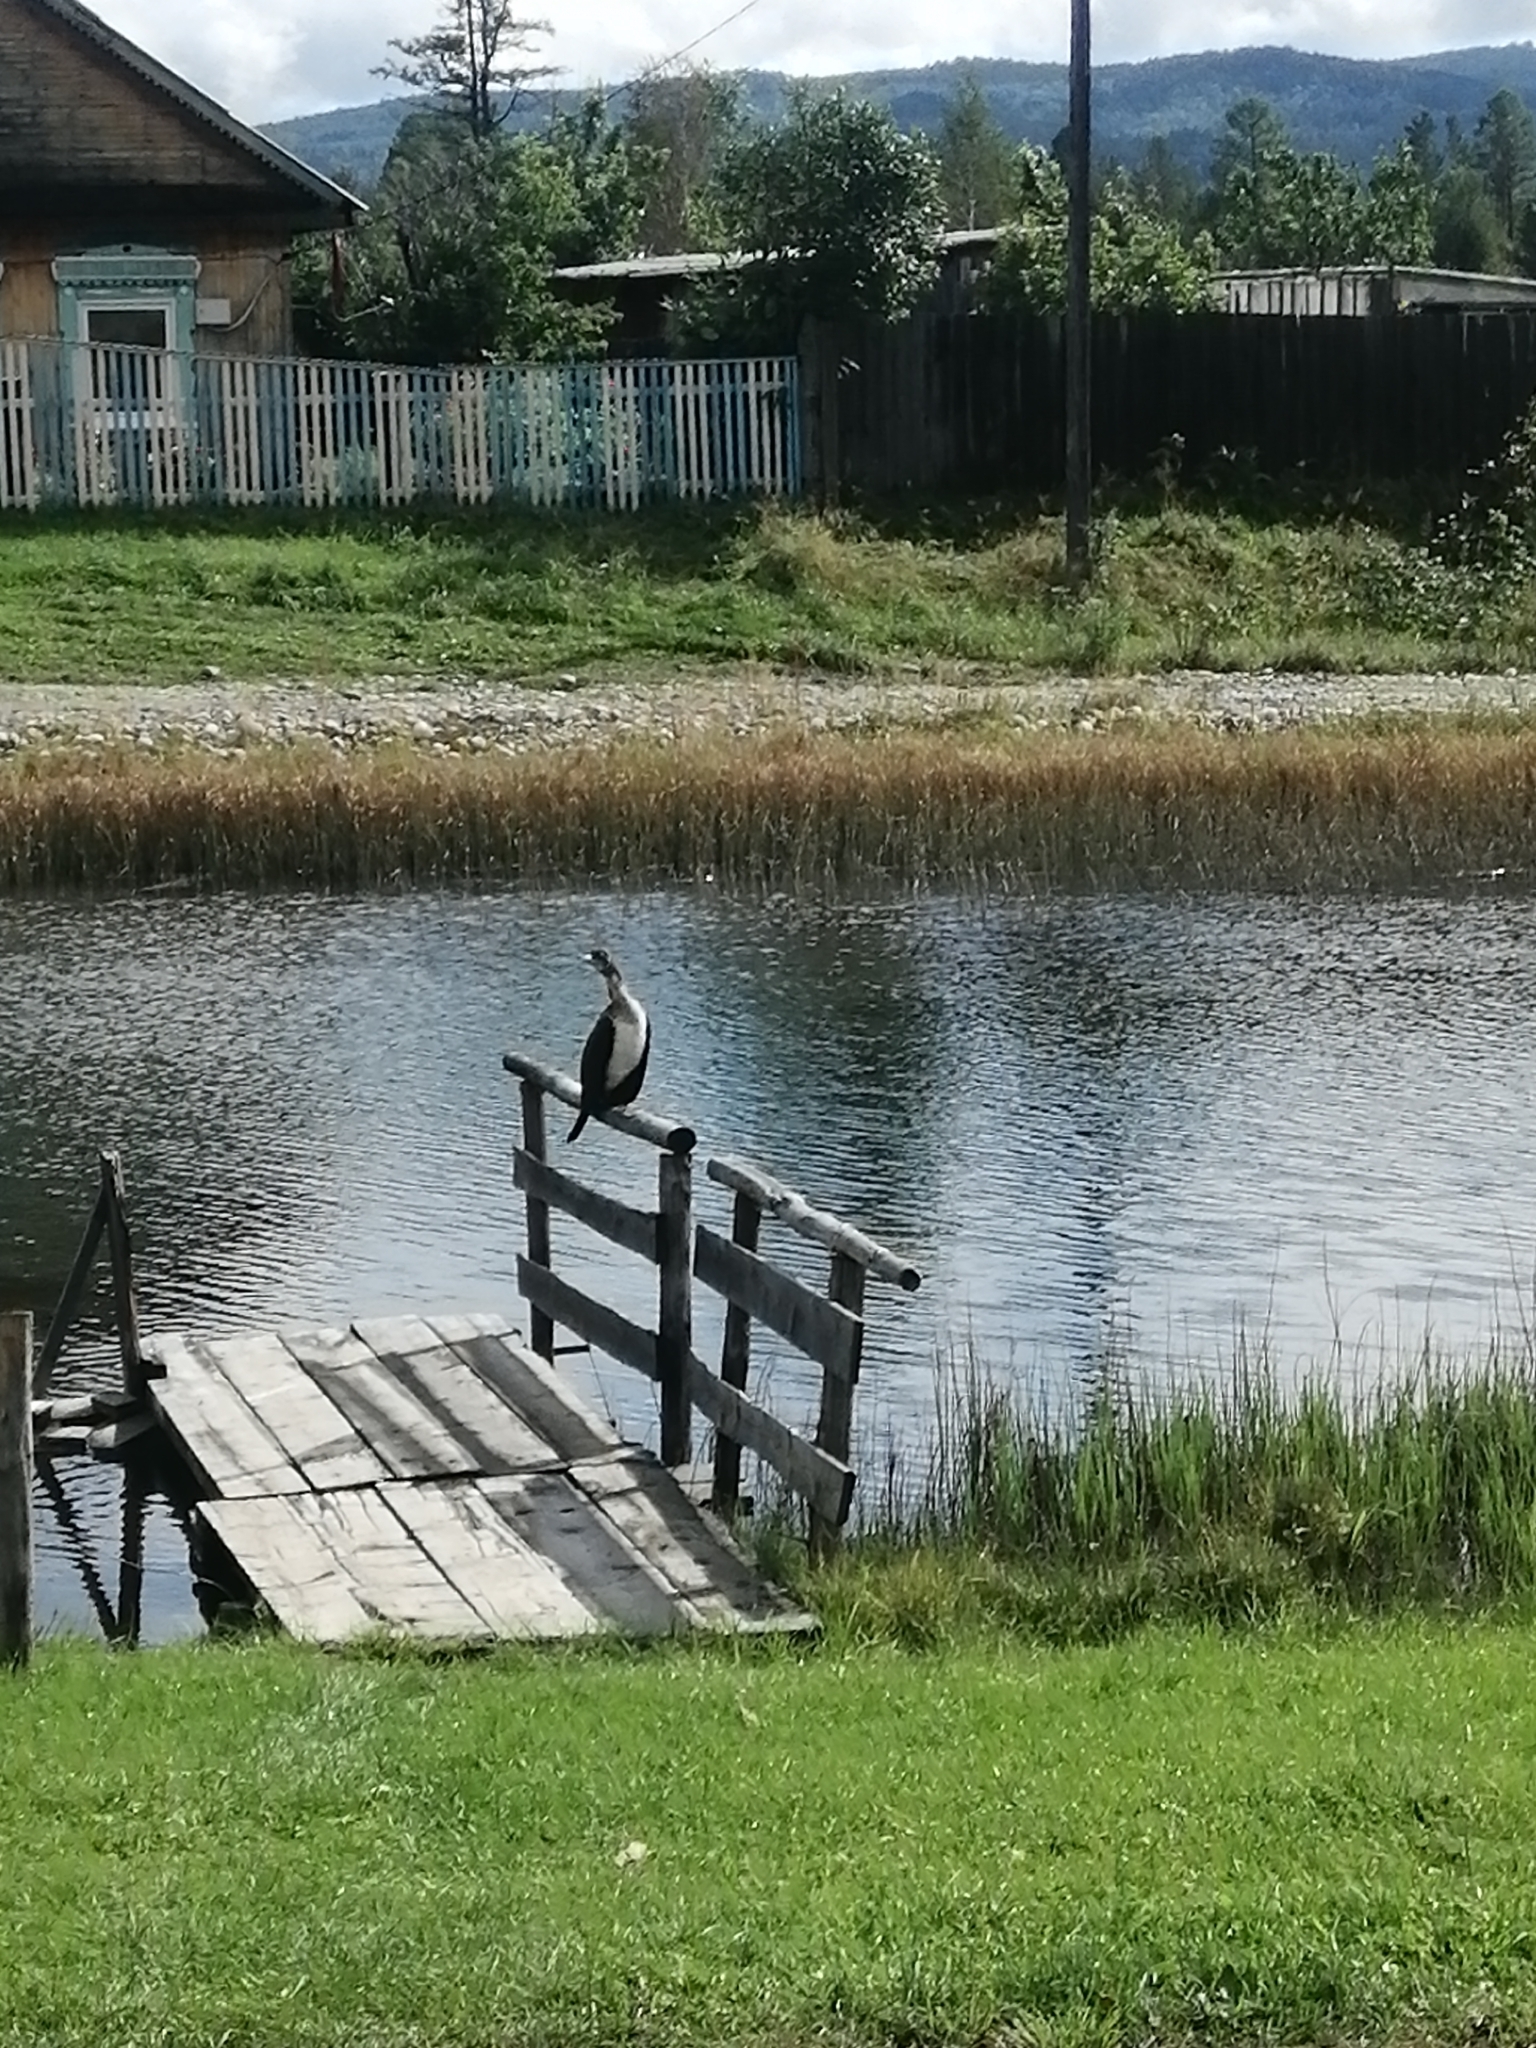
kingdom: Animalia
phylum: Chordata
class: Aves
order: Suliformes
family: Phalacrocoracidae
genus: Phalacrocorax
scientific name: Phalacrocorax carbo
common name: Great cormorant
